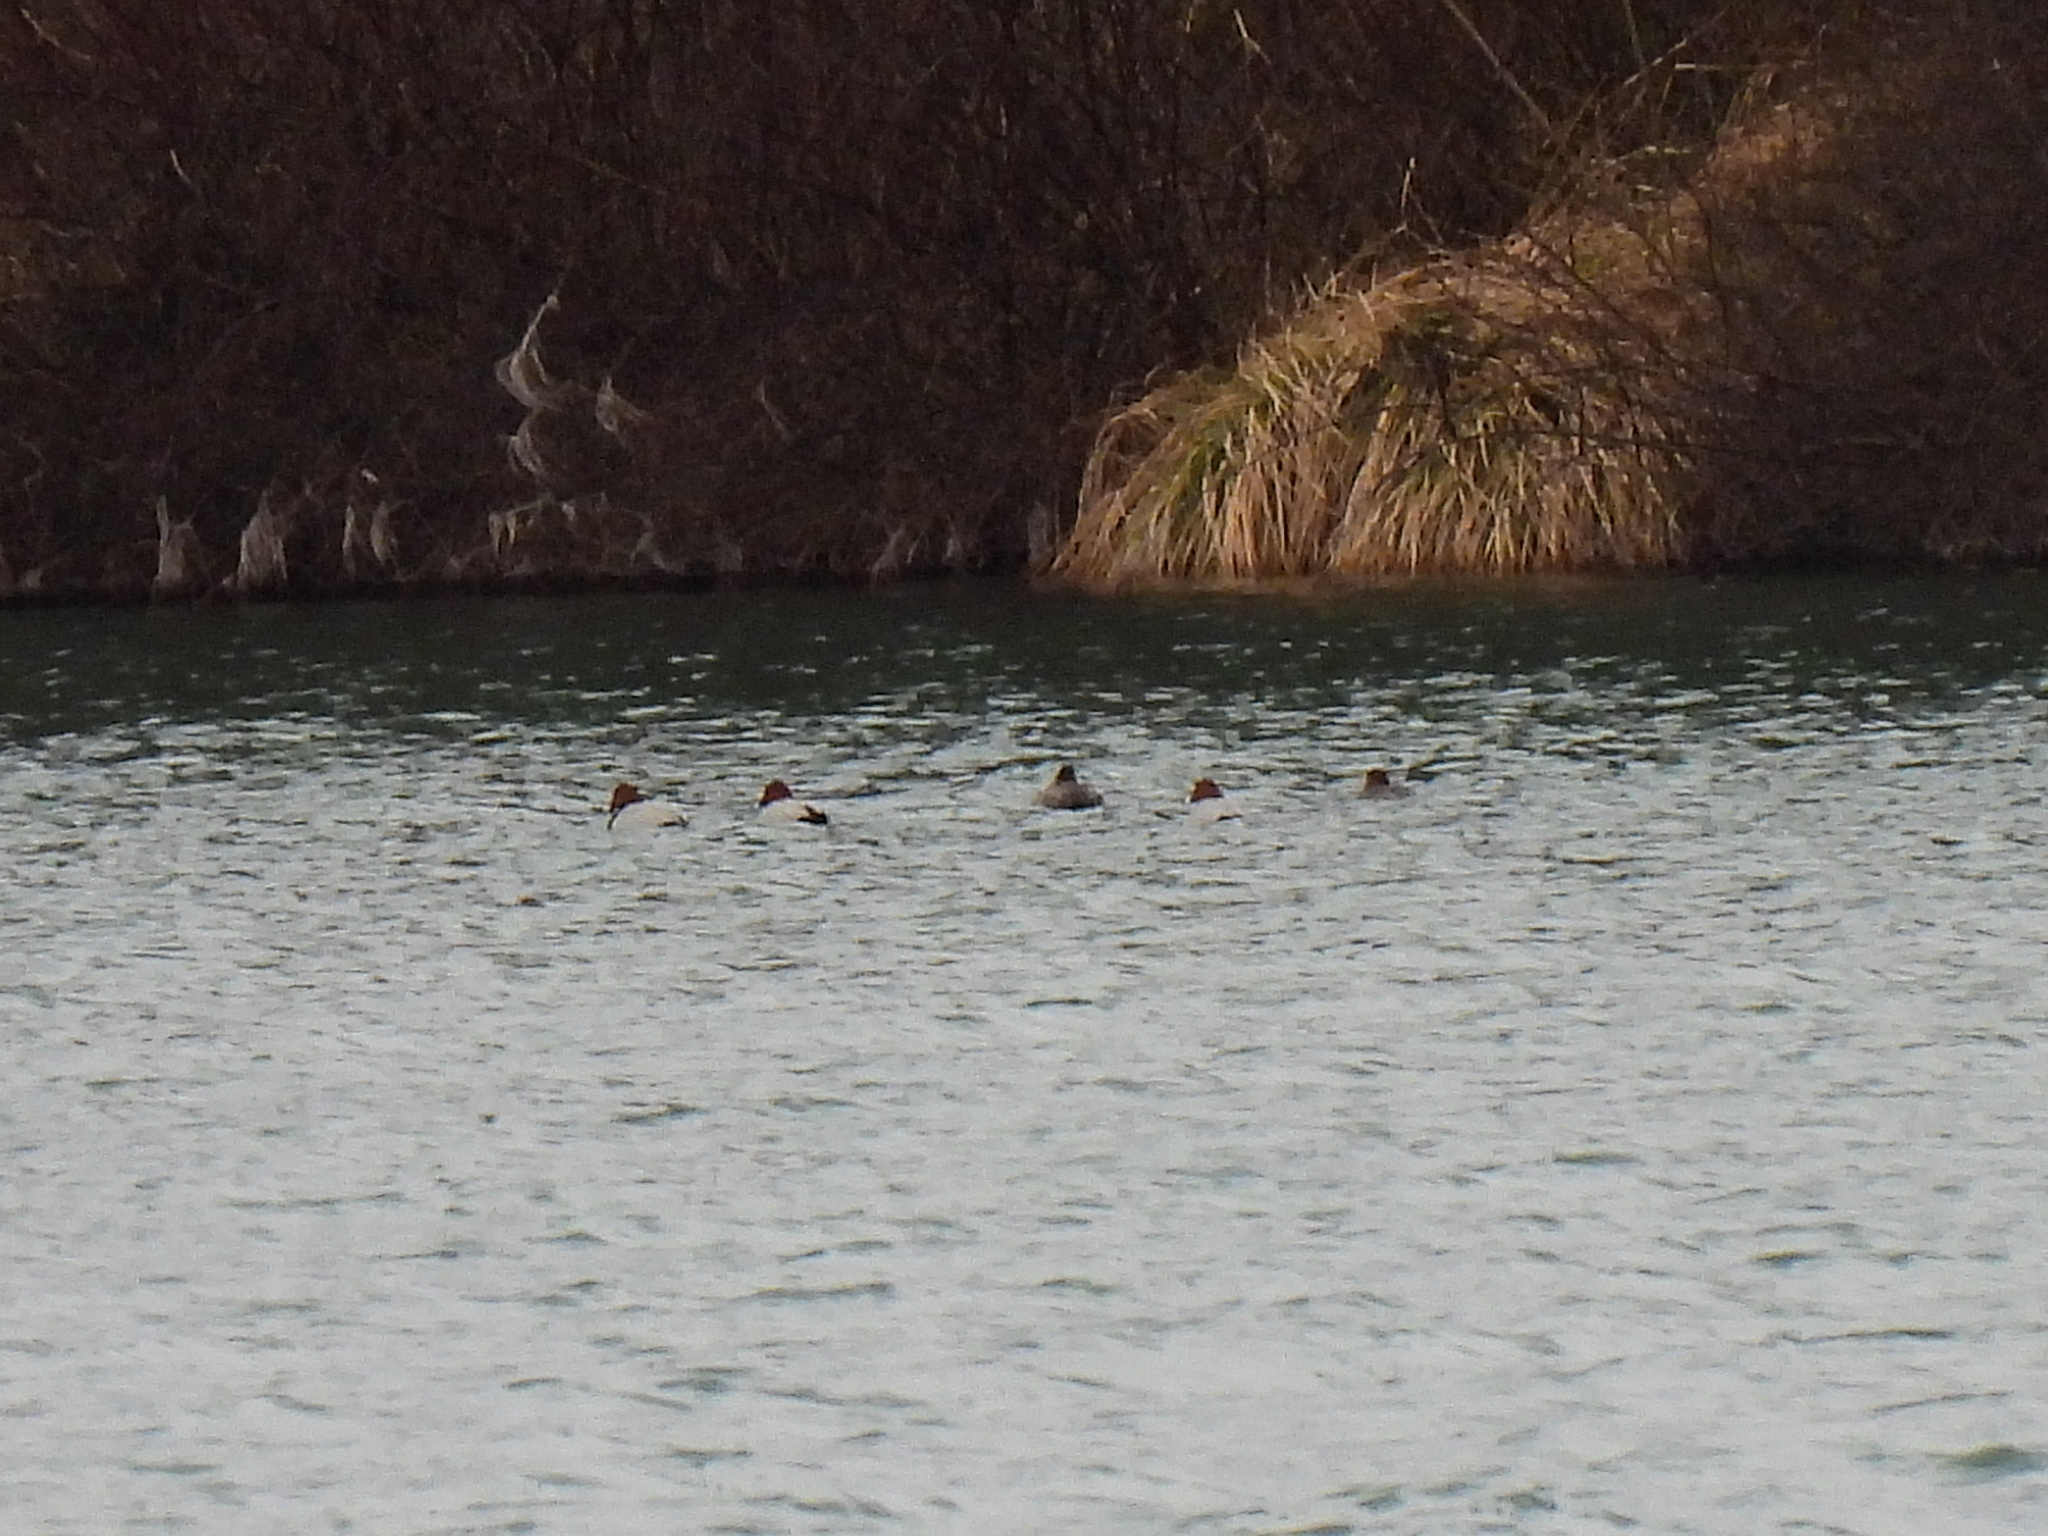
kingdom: Animalia
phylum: Chordata
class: Aves
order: Anseriformes
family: Anatidae
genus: Aythya
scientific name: Aythya ferina
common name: Common pochard
